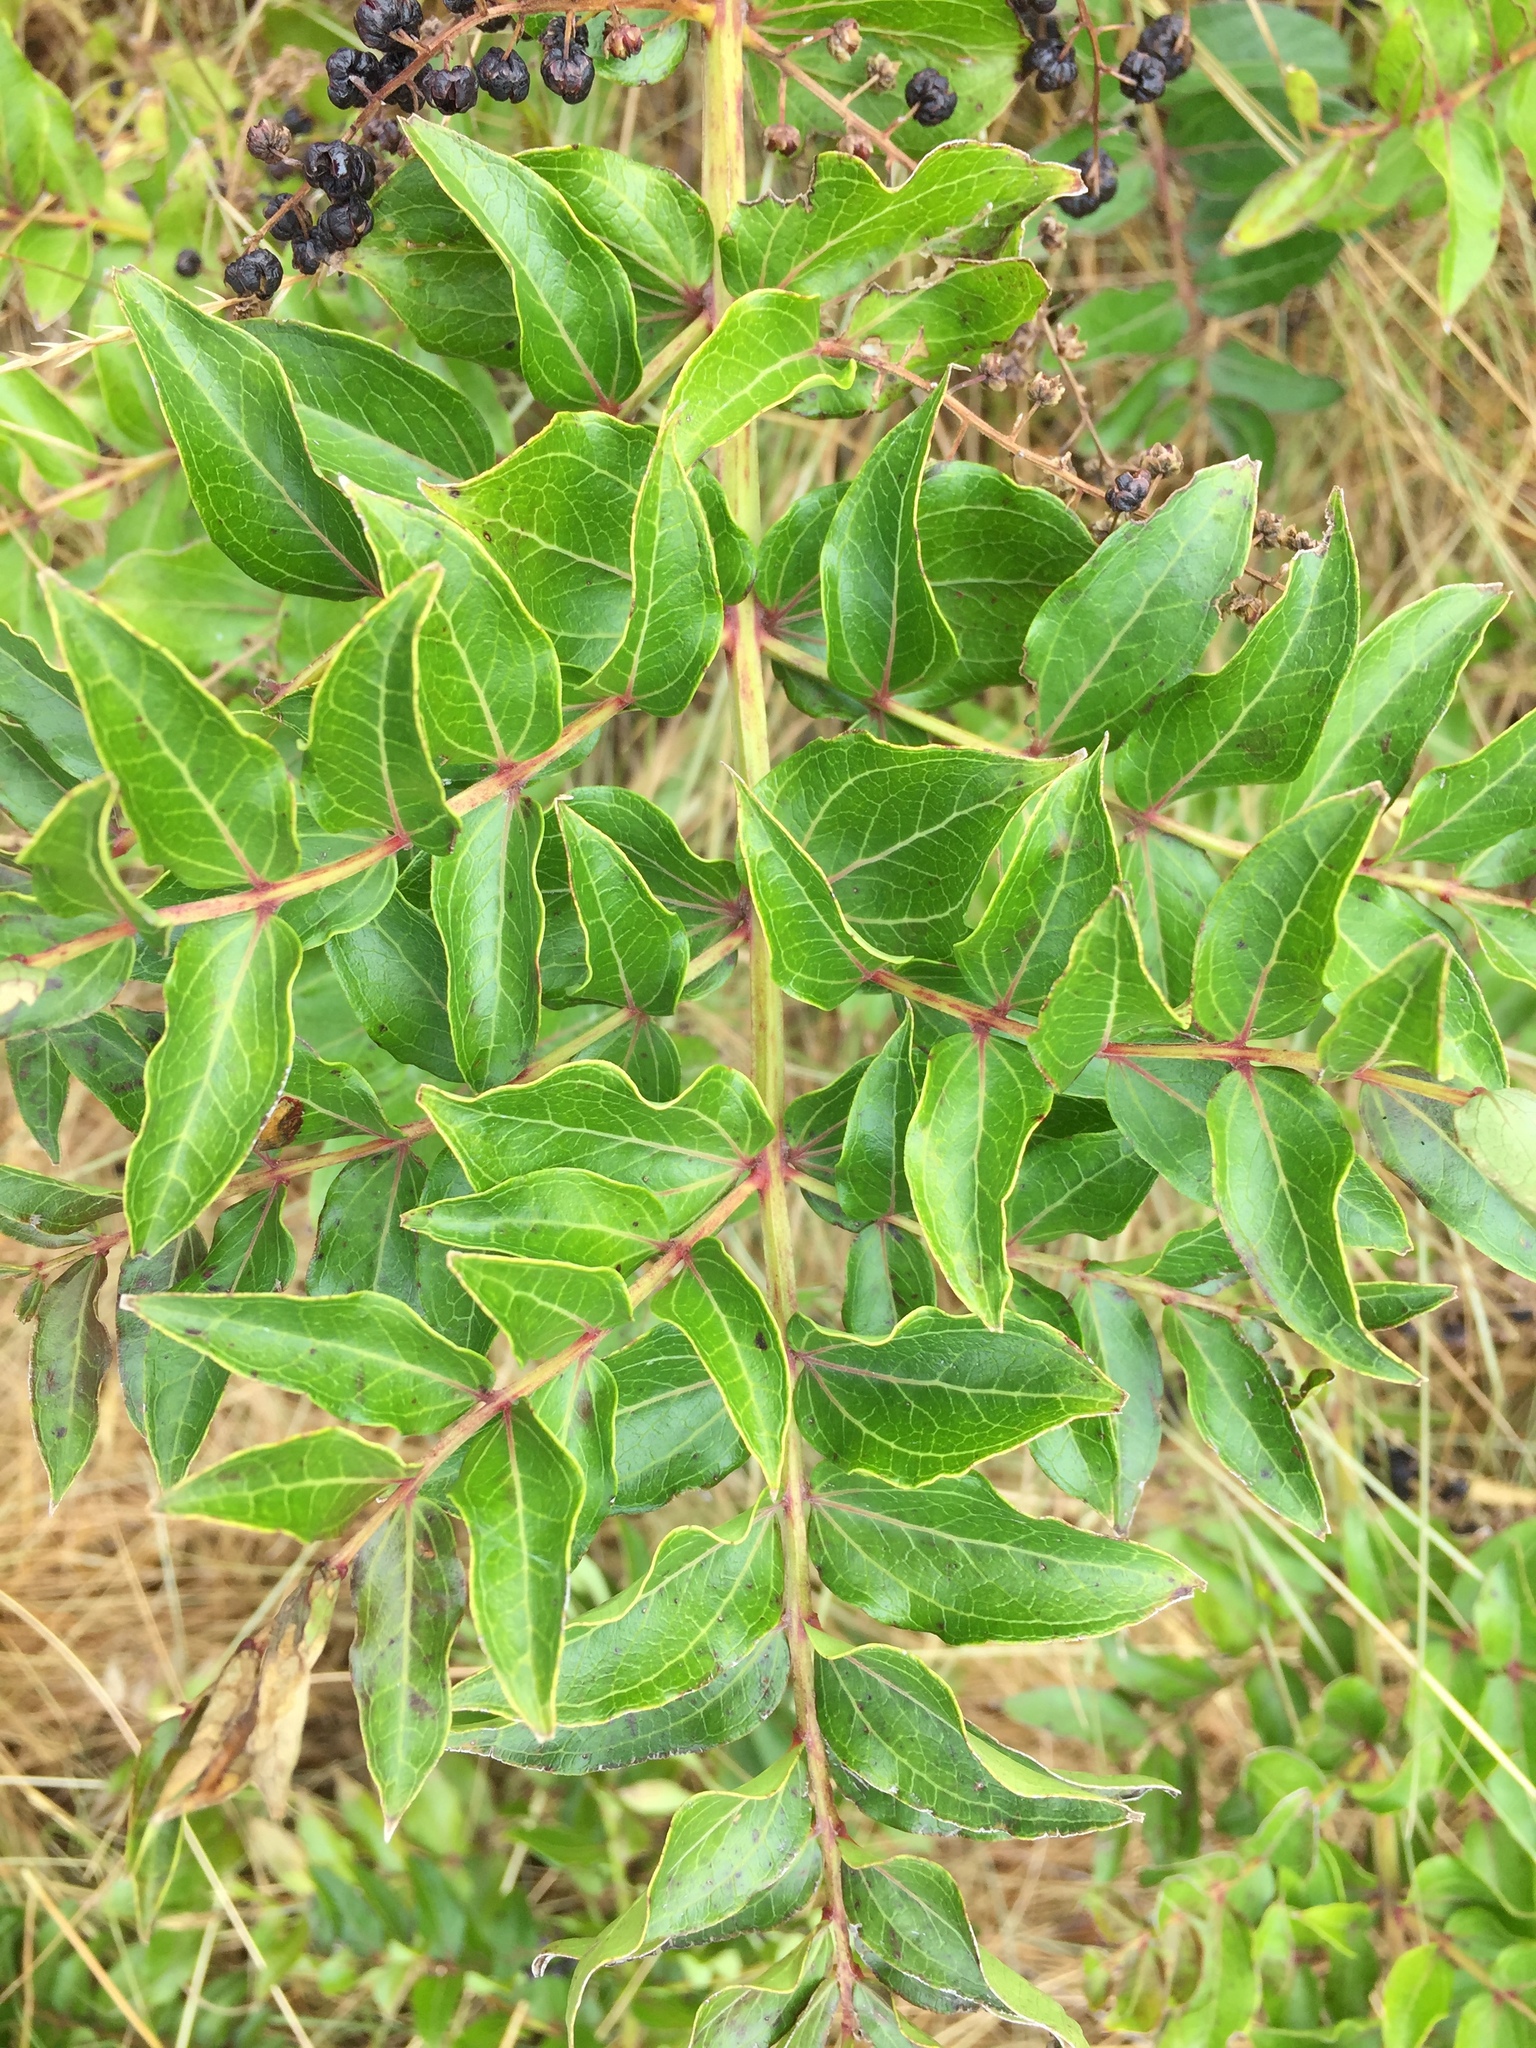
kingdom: Plantae
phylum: Tracheophyta
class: Magnoliopsida
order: Cucurbitales
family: Coriariaceae
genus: Coriaria
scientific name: Coriaria sarmentosa
